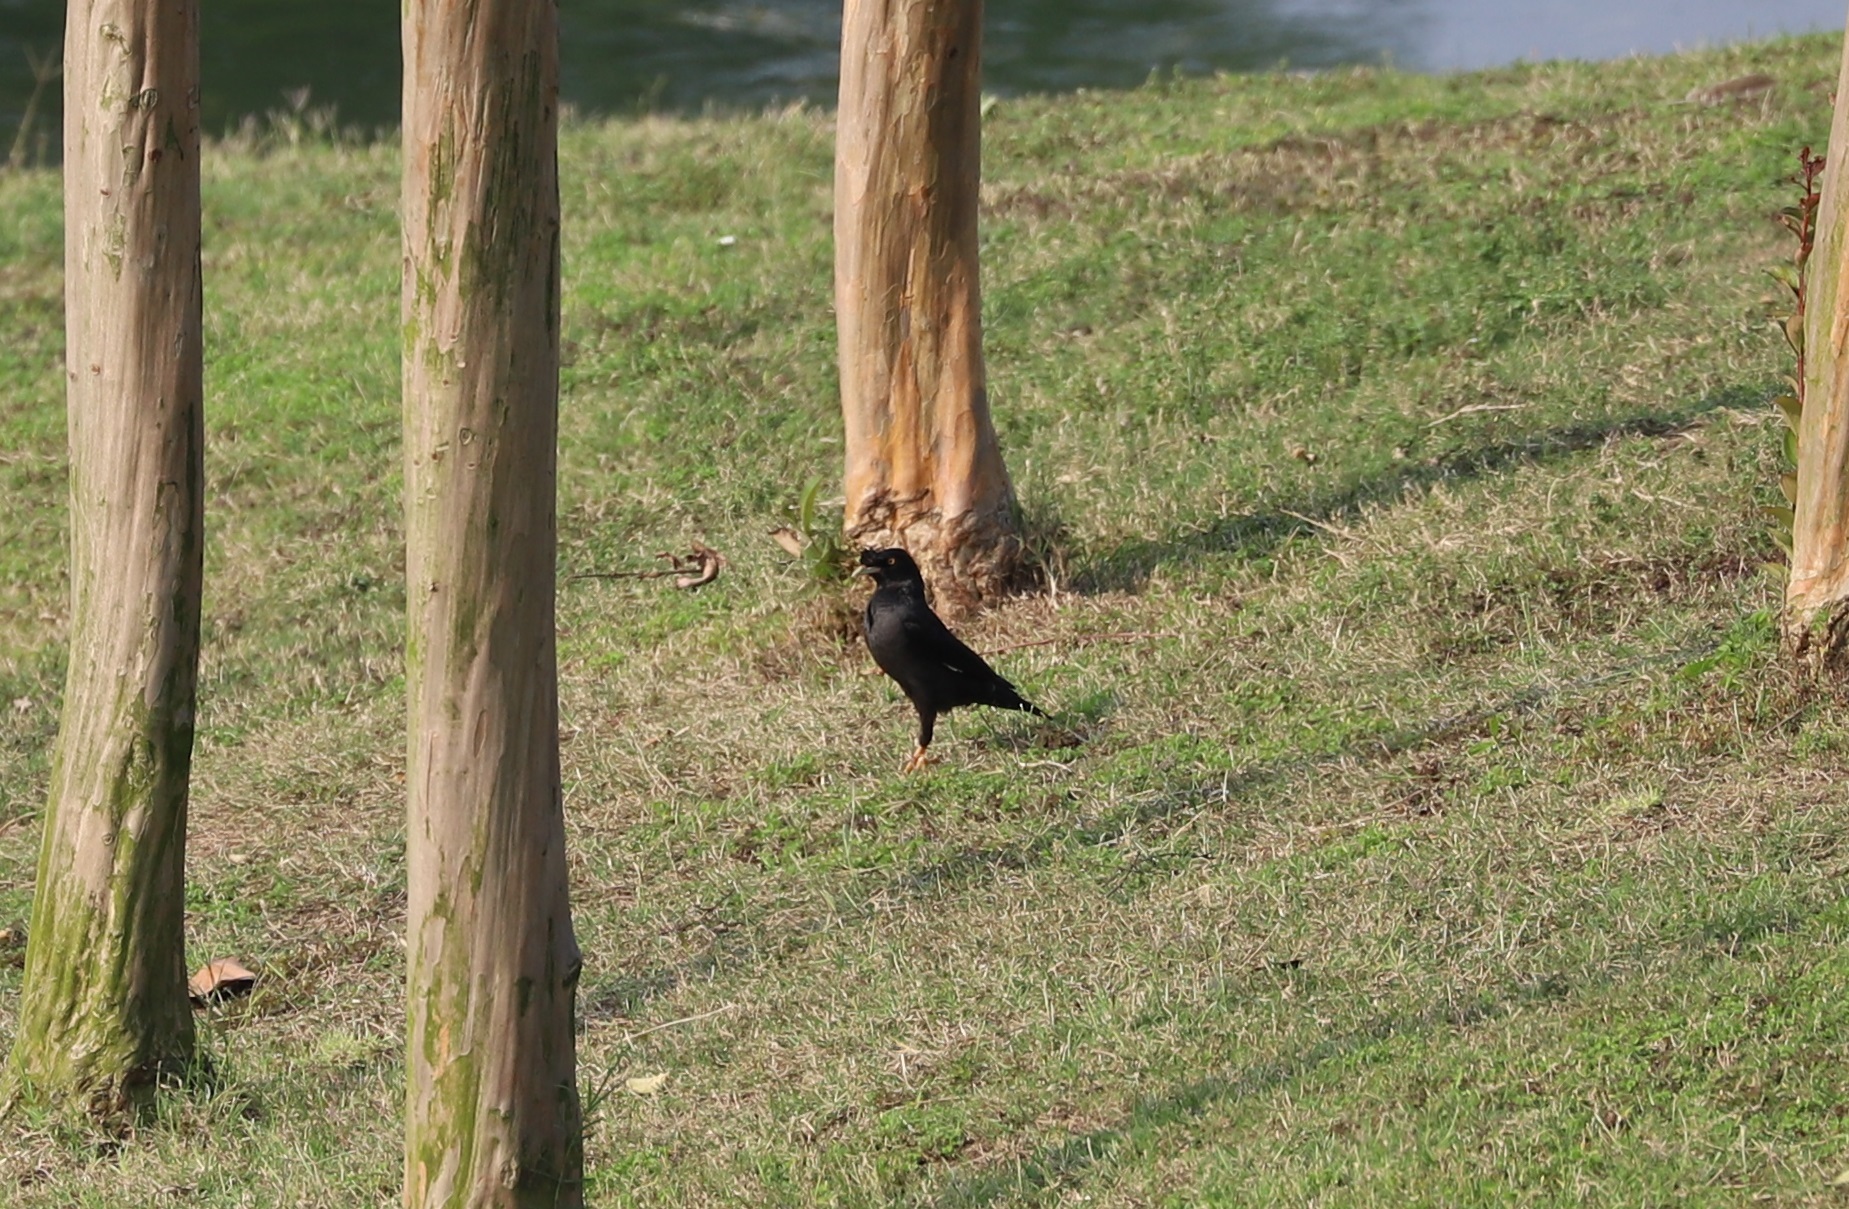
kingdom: Animalia
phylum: Chordata
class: Aves
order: Passeriformes
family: Sturnidae
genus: Acridotheres
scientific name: Acridotheres cristatellus
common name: Crested myna
